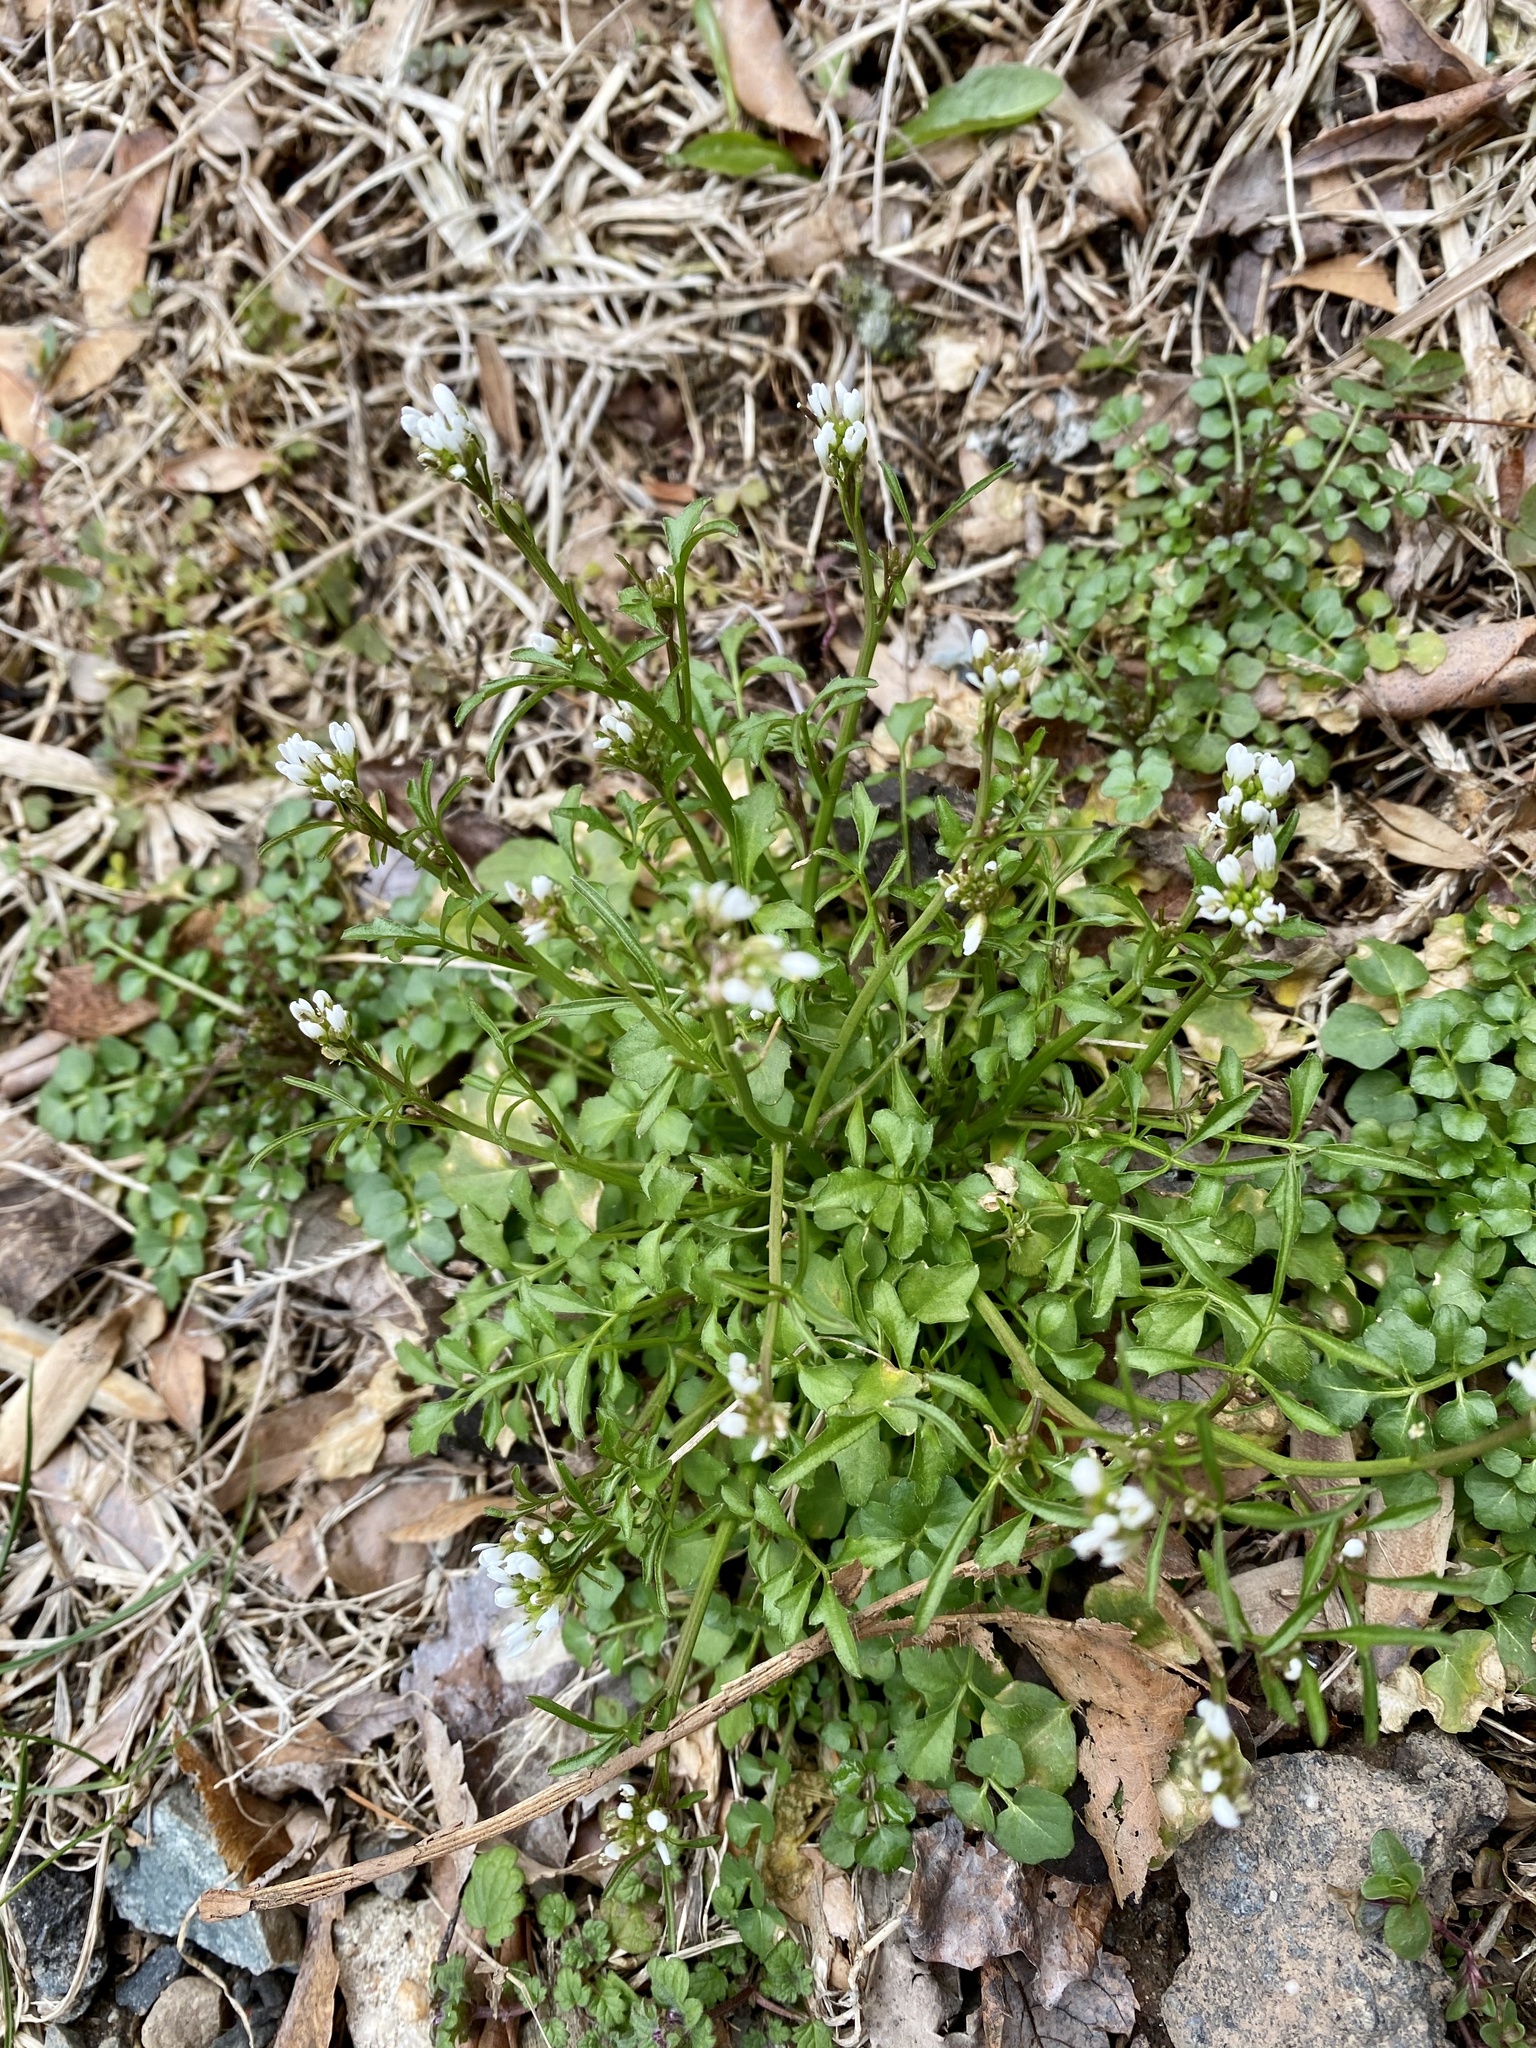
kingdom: Plantae
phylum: Tracheophyta
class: Magnoliopsida
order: Brassicales
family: Brassicaceae
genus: Cardamine
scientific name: Cardamine hirsuta
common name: Hairy bittercress
